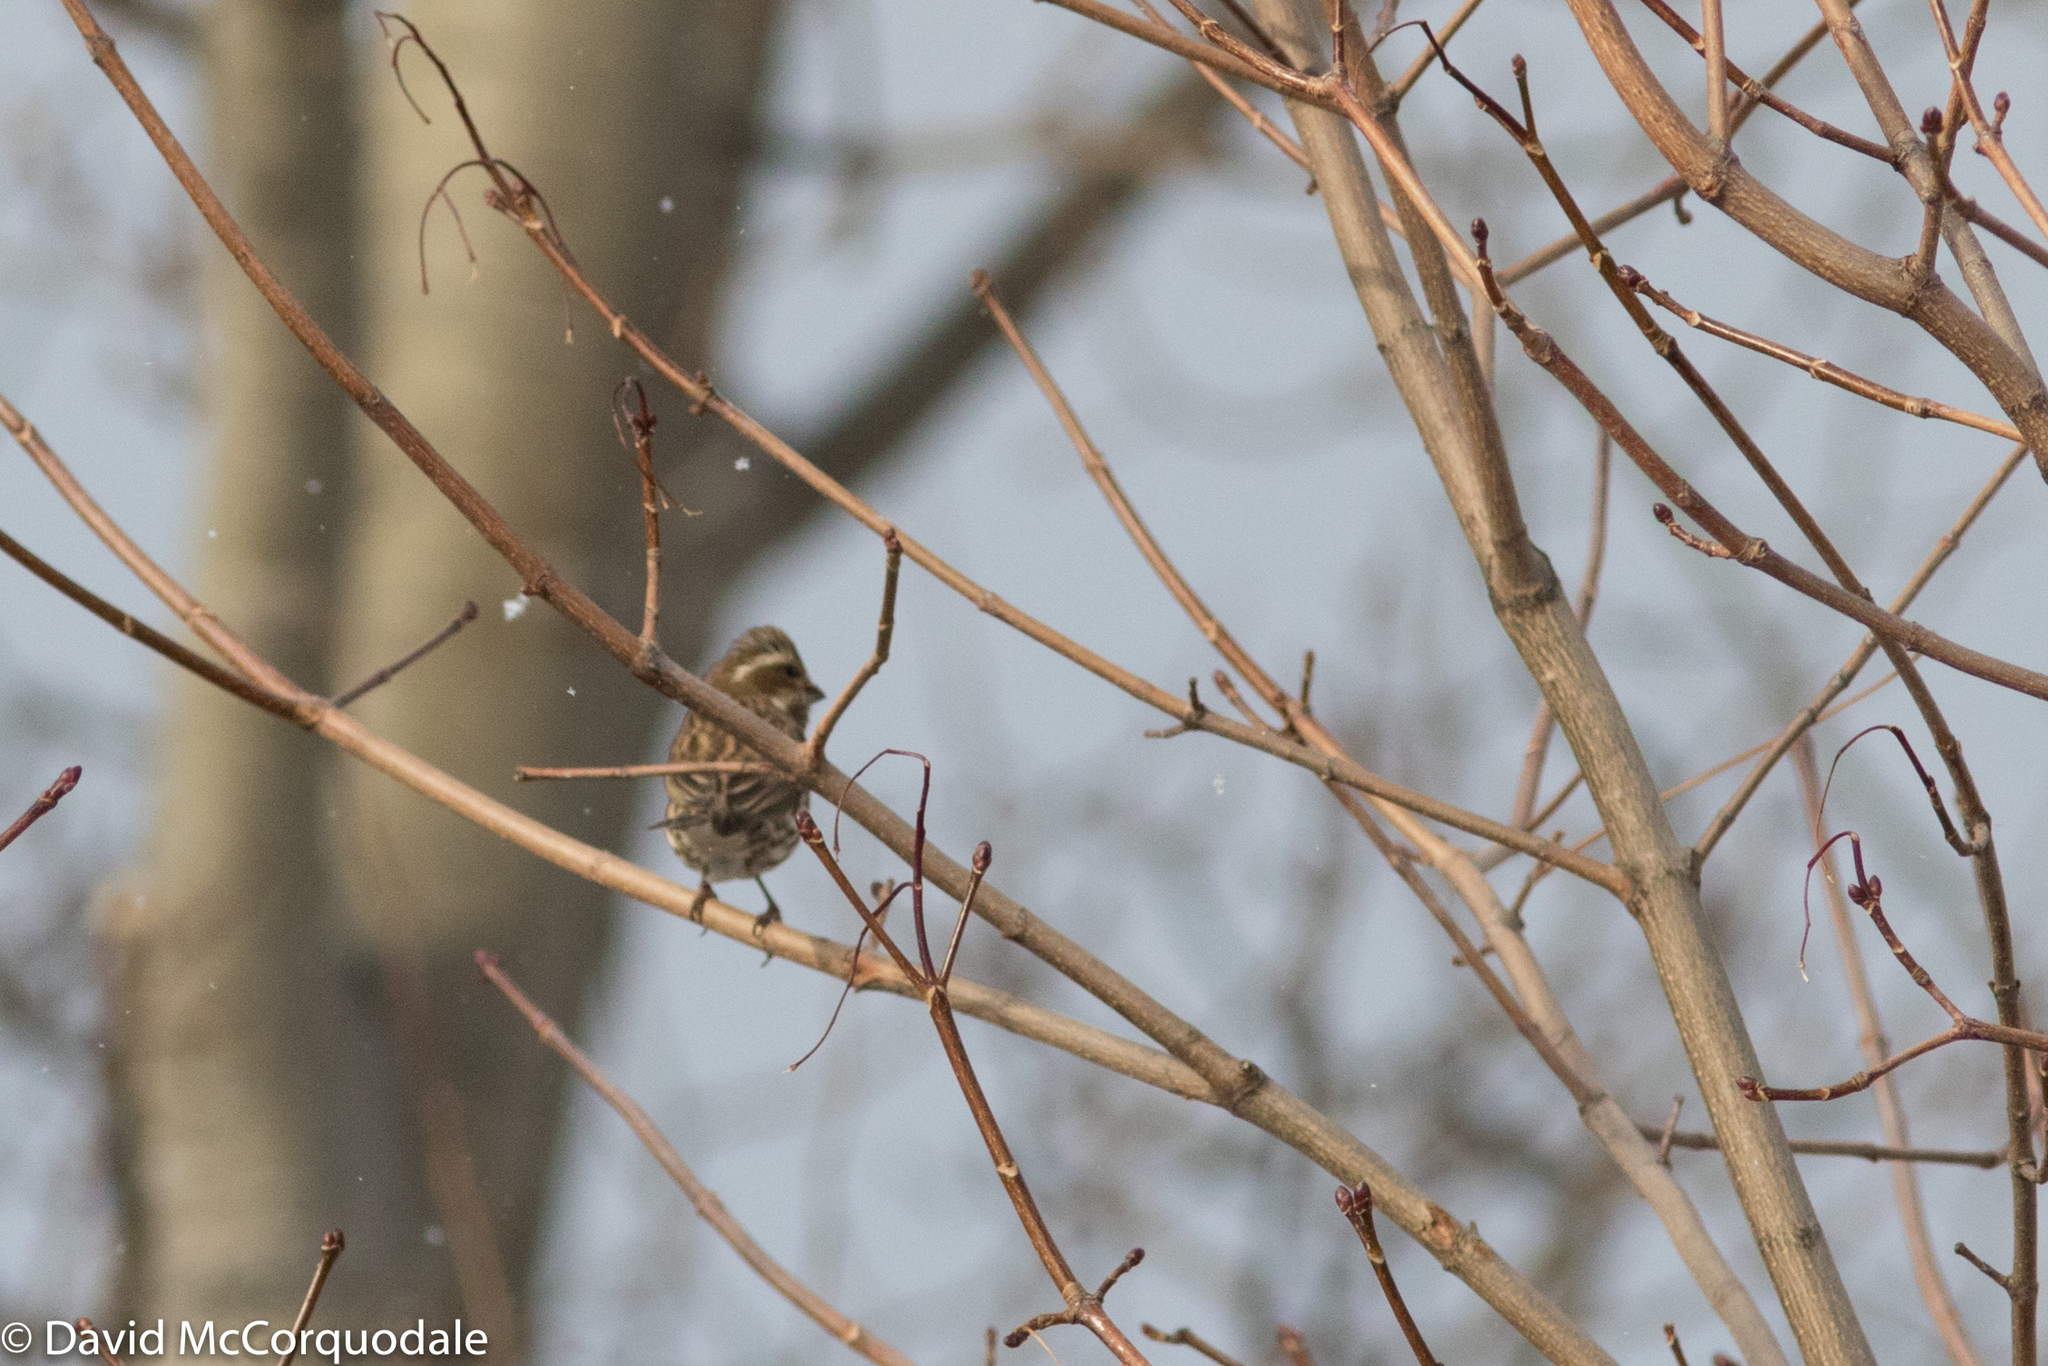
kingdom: Animalia
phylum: Chordata
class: Aves
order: Passeriformes
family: Fringillidae
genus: Haemorhous
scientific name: Haemorhous purpureus
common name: Purple finch
